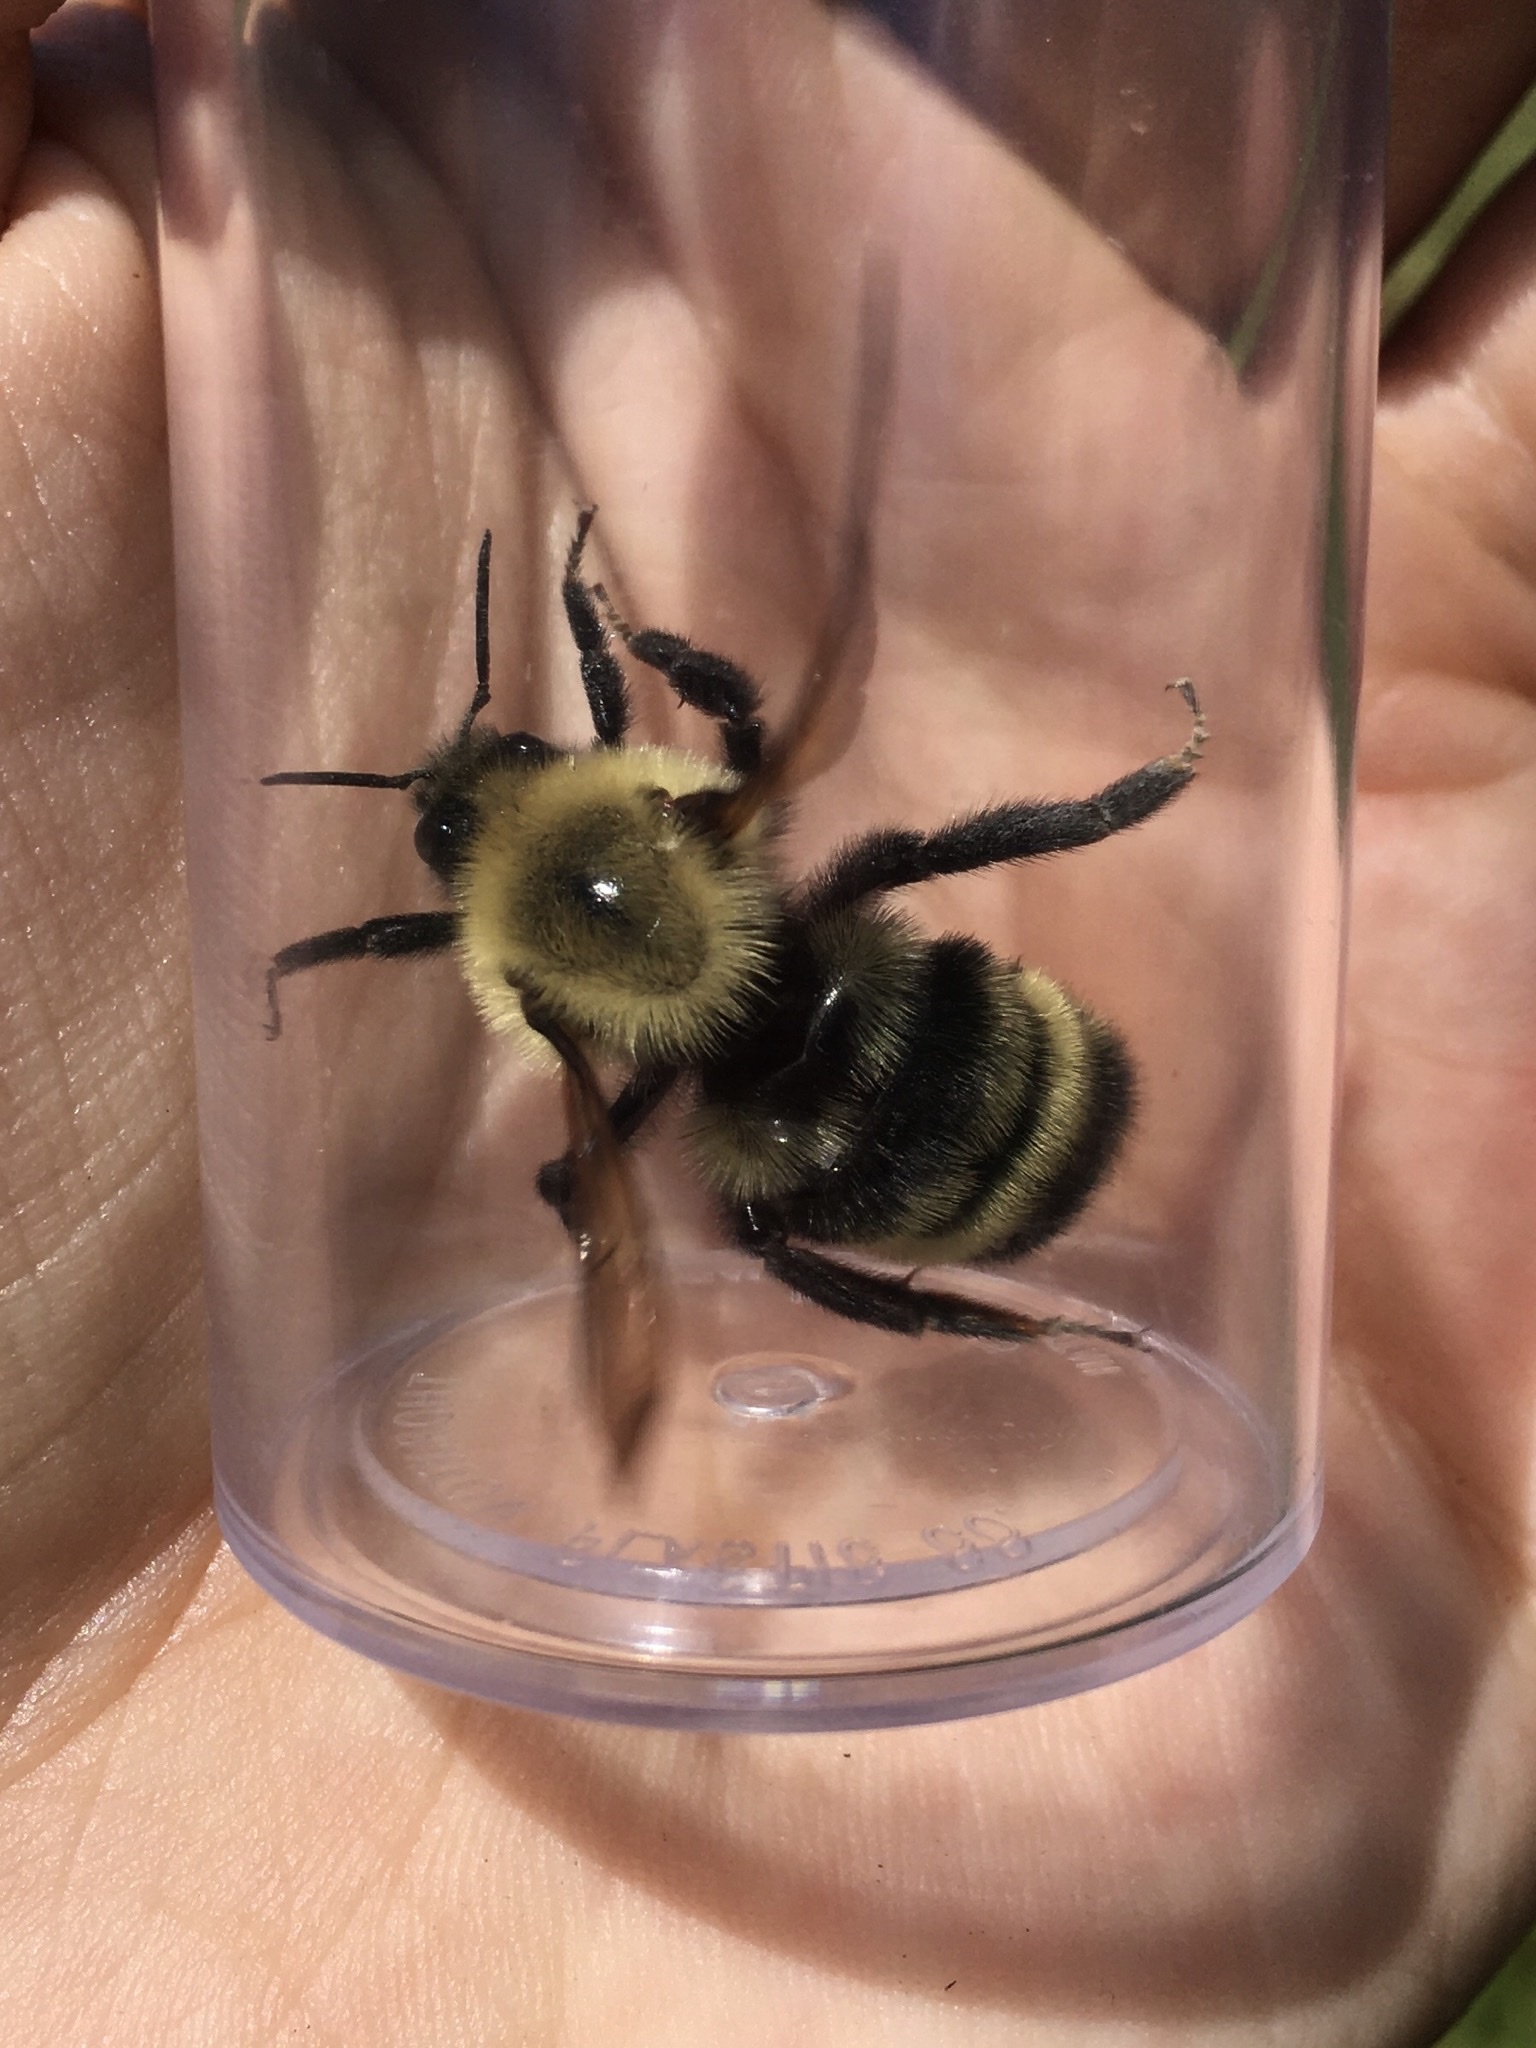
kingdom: Animalia
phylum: Arthropoda
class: Insecta
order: Hymenoptera
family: Apidae
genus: Bombus
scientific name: Bombus citrinus
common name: Lemon cuckoo bumble bee
